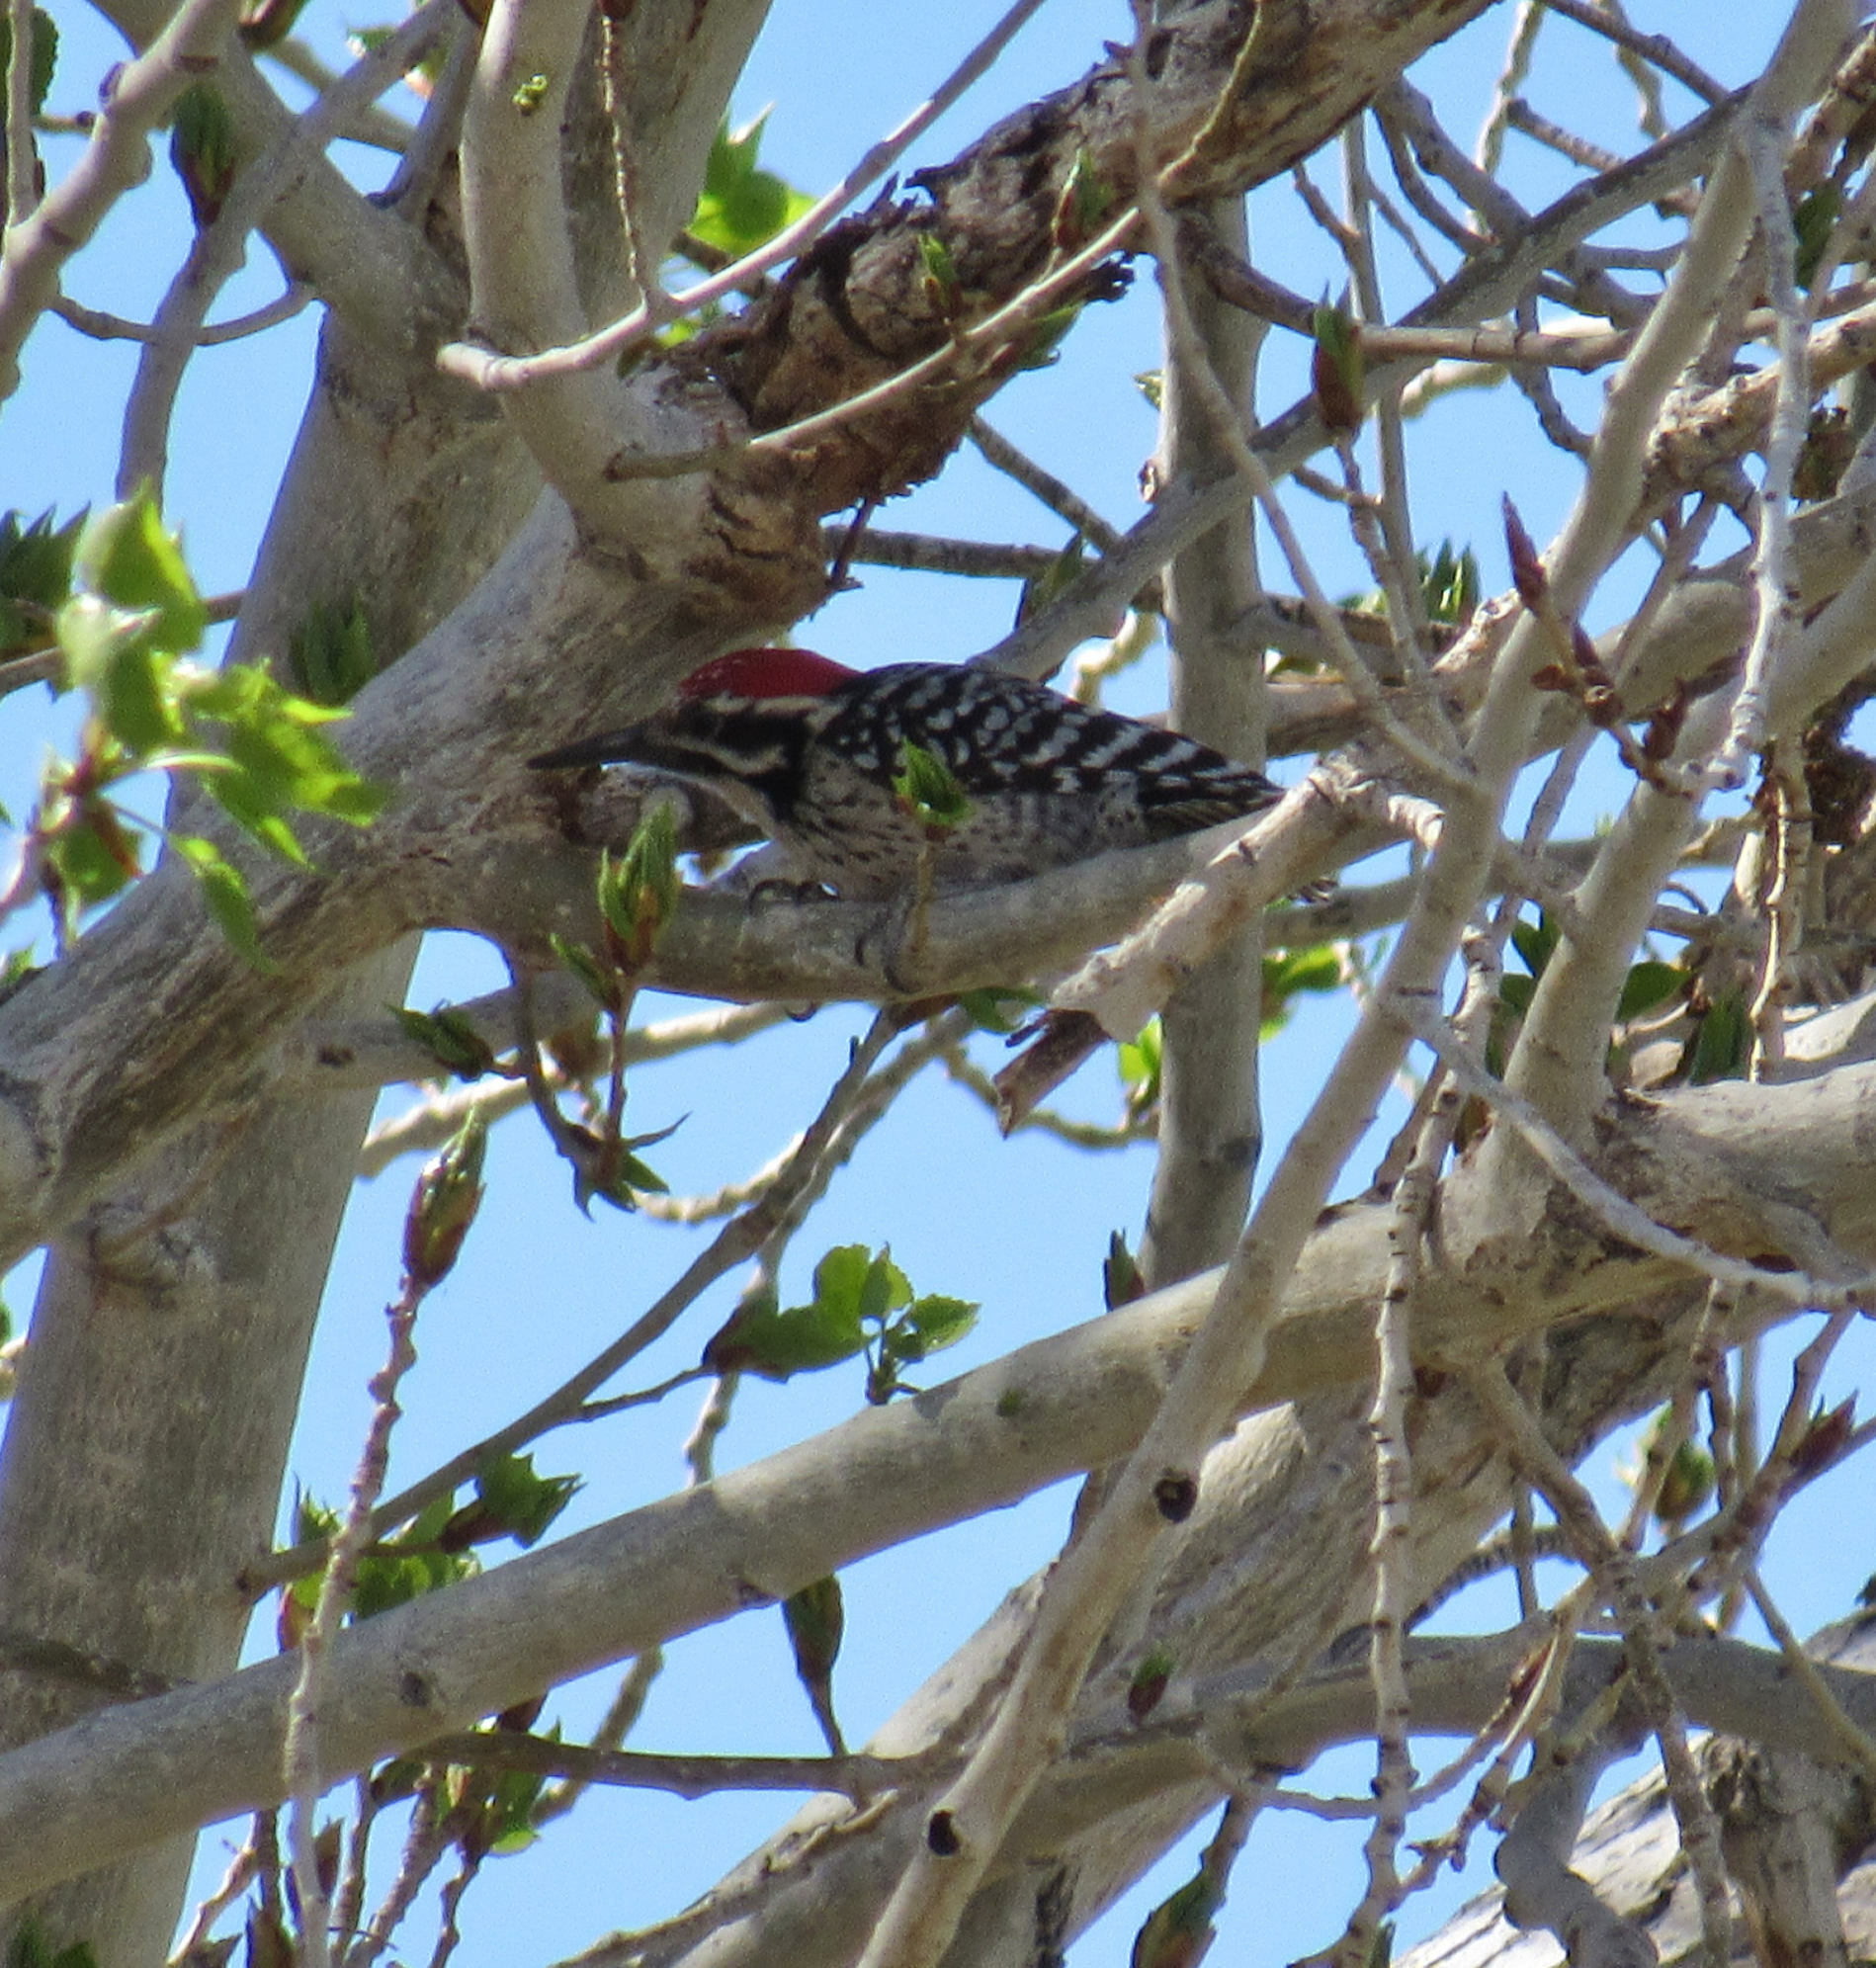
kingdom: Animalia
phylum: Chordata
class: Aves
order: Piciformes
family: Picidae
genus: Dryobates
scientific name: Dryobates scalaris
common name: Ladder-backed woodpecker
